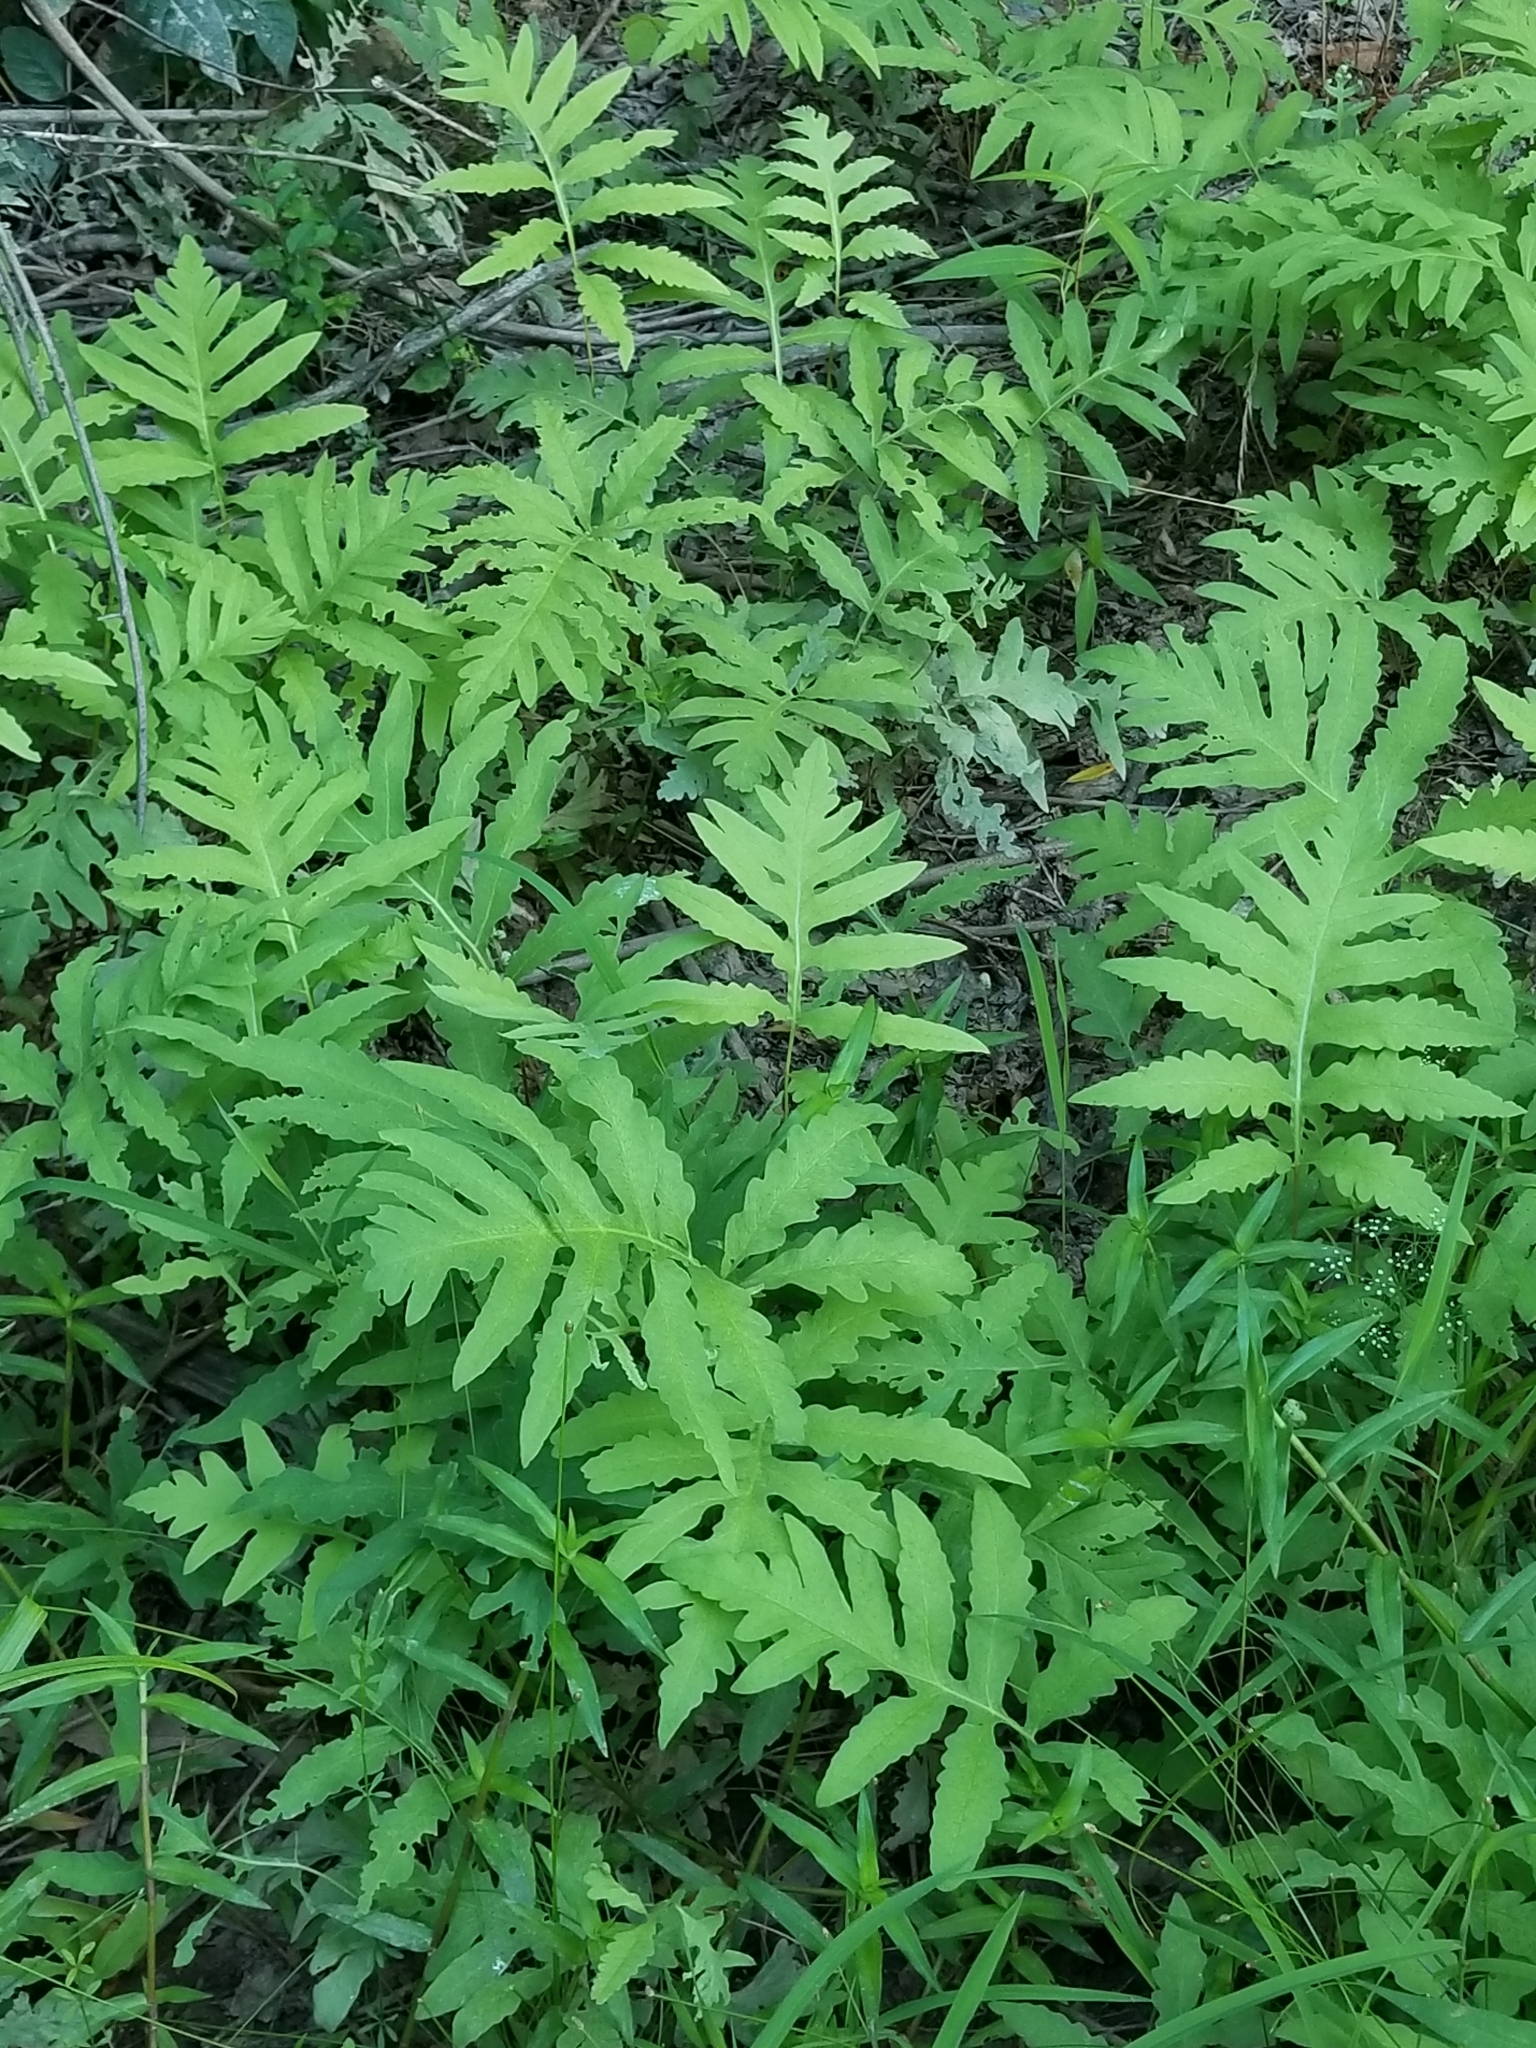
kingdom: Plantae
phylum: Tracheophyta
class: Polypodiopsida
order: Polypodiales
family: Onocleaceae
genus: Onoclea
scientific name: Onoclea sensibilis
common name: Sensitive fern
